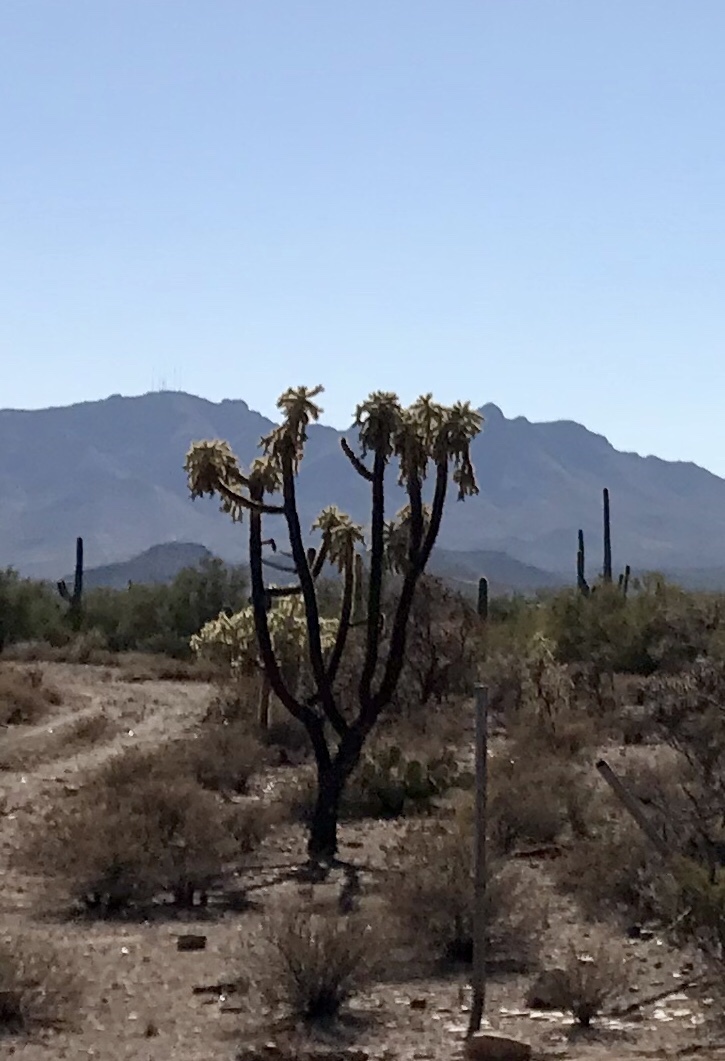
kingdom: Plantae
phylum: Tracheophyta
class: Magnoliopsida
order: Caryophyllales
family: Cactaceae
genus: Cylindropuntia
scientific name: Cylindropuntia fulgida
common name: Jumping cholla
